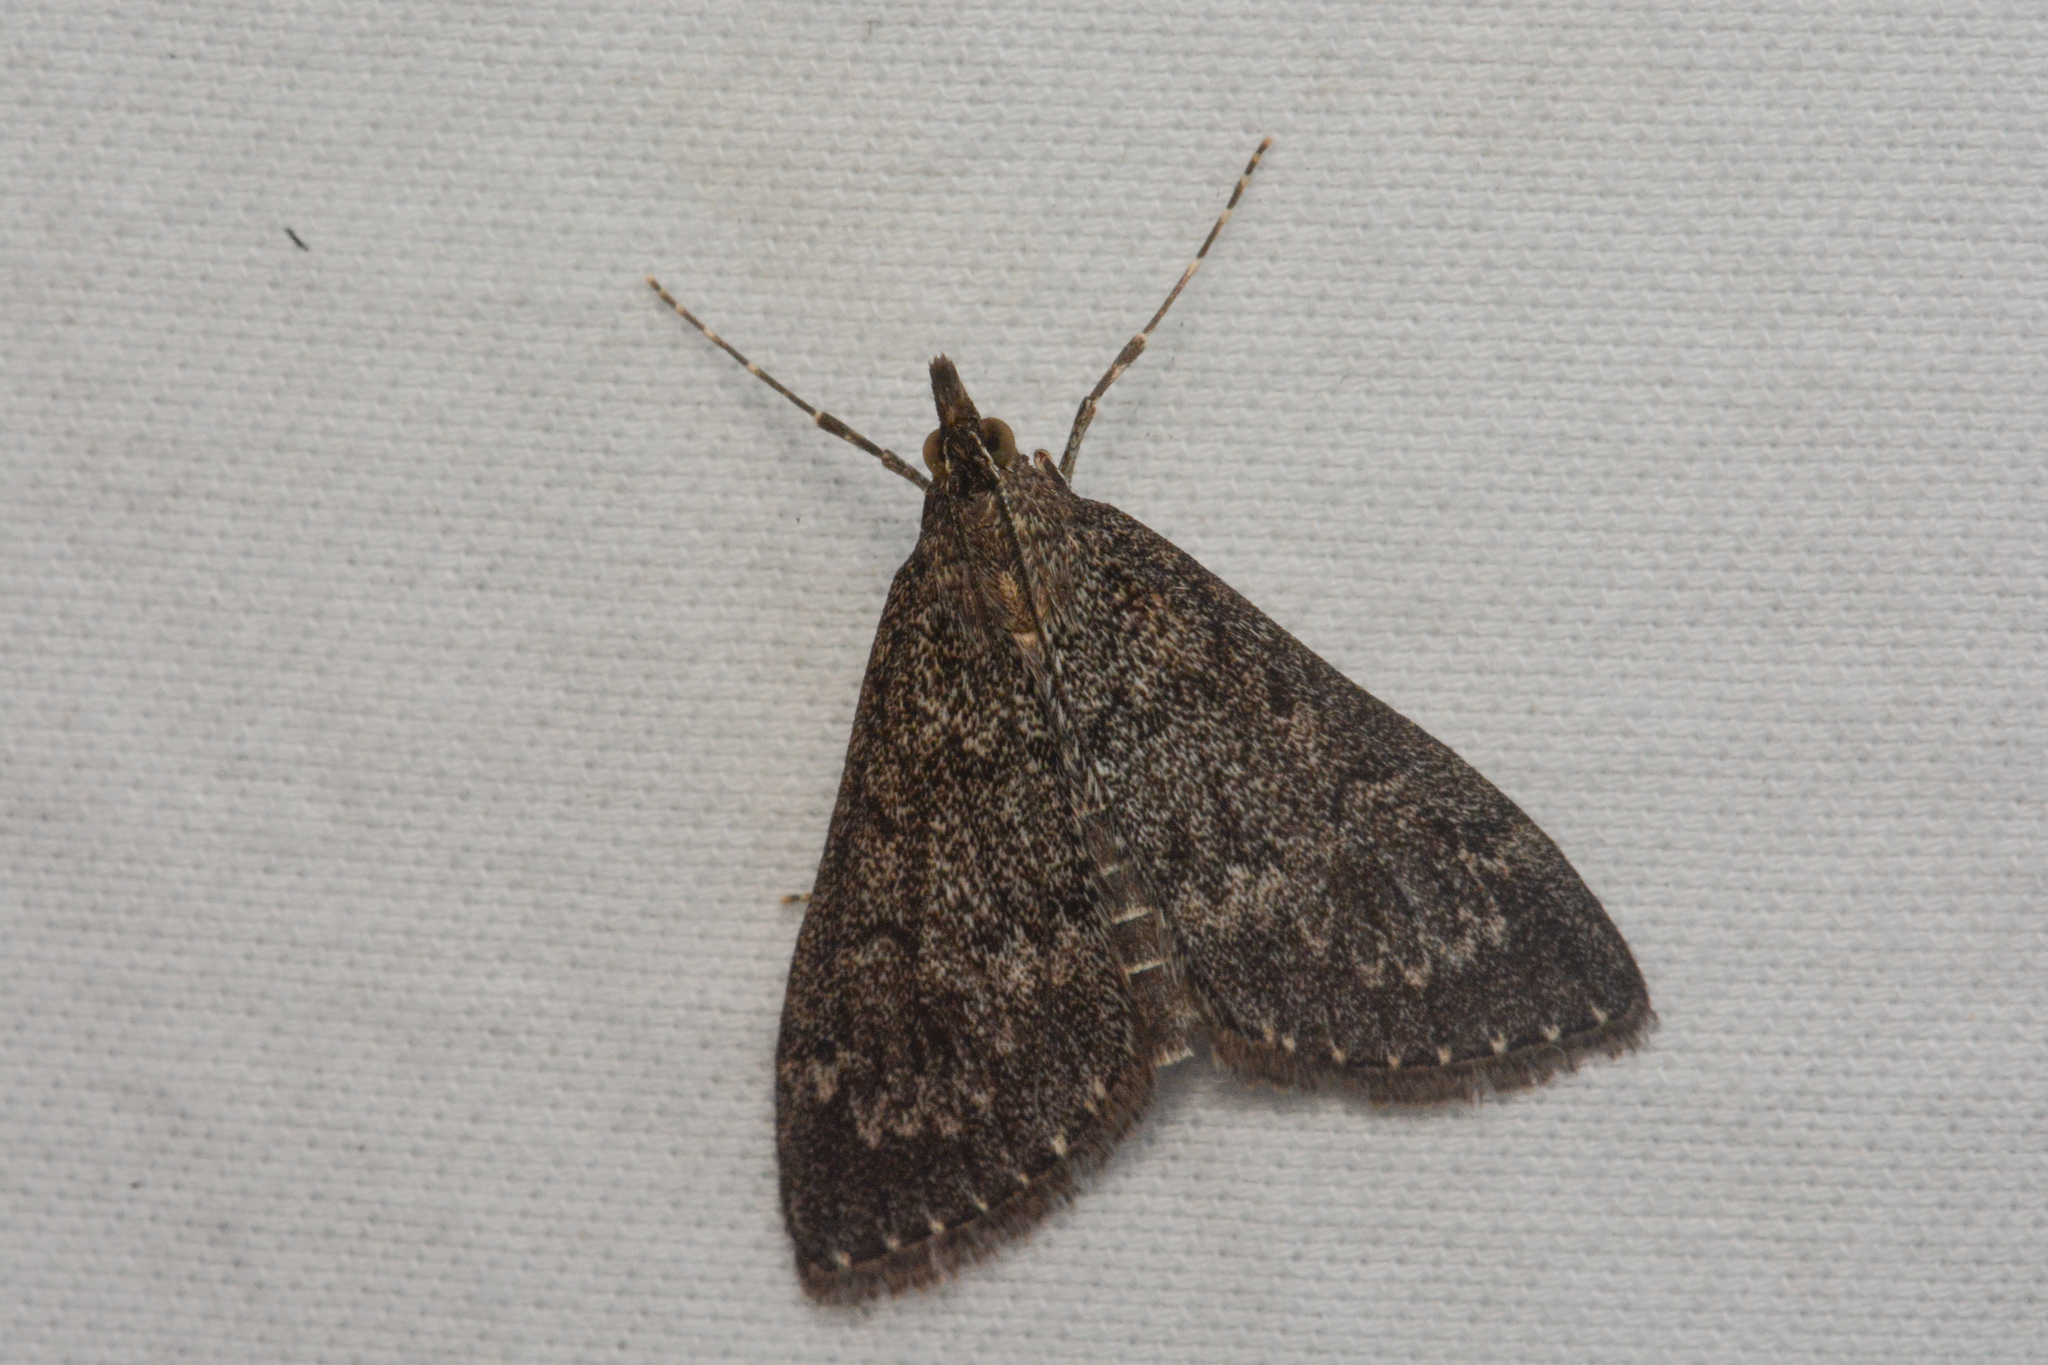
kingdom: Animalia
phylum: Arthropoda
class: Insecta
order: Lepidoptera
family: Crambidae
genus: Saucrobotys
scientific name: Saucrobotys fumoferalis
